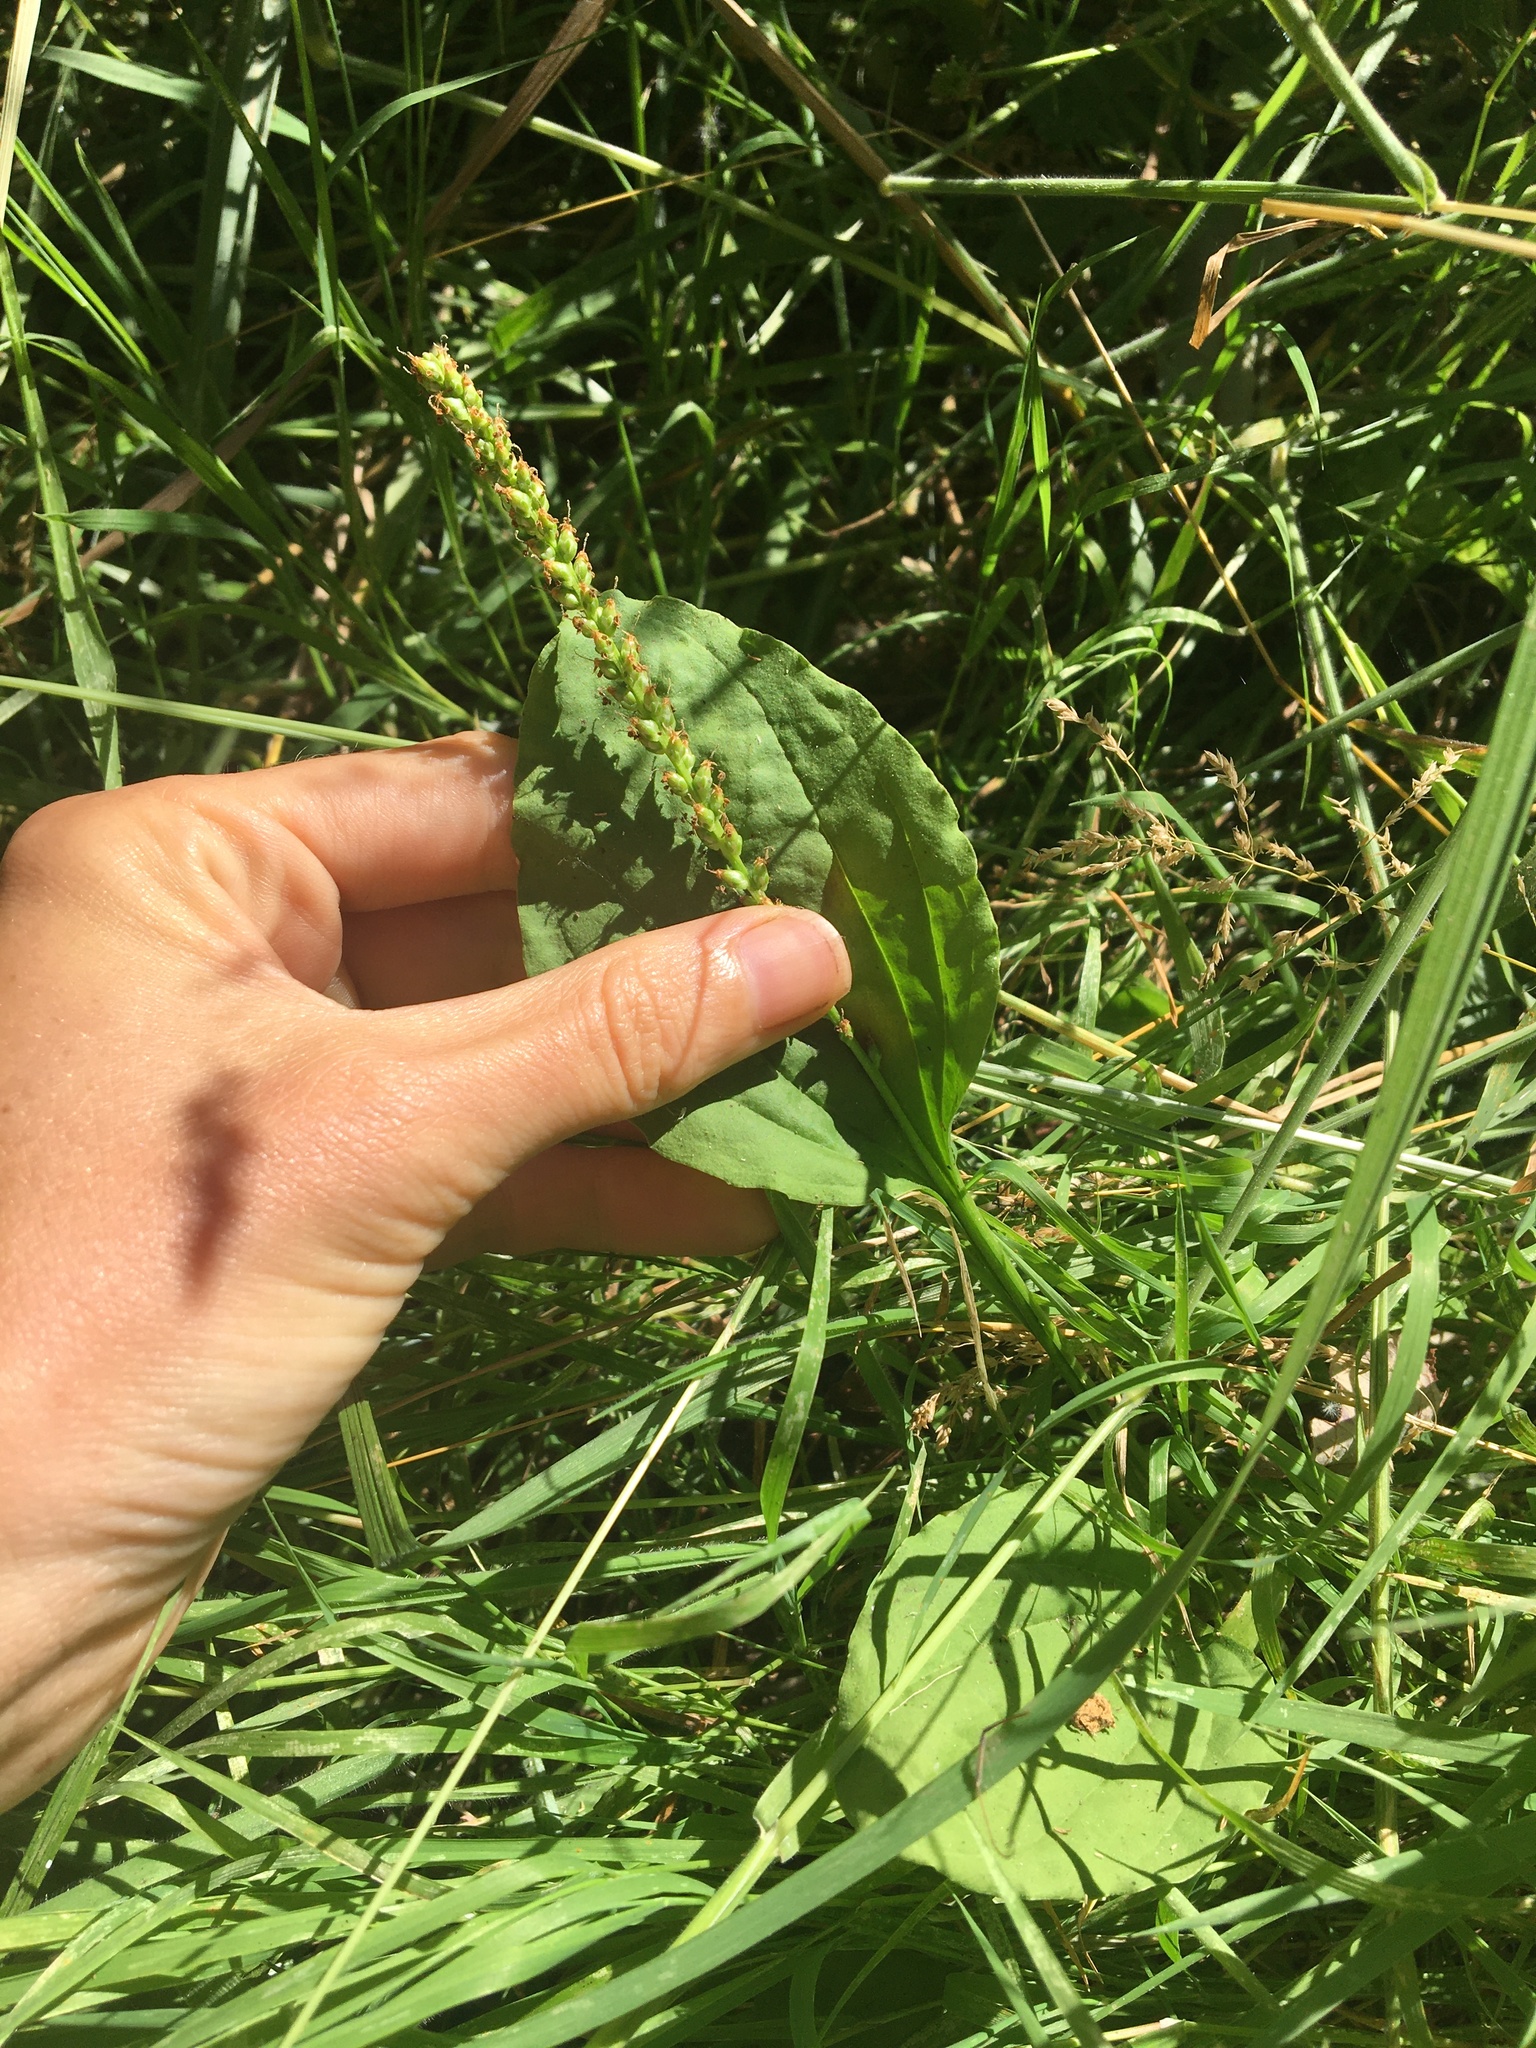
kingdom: Plantae
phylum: Tracheophyta
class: Magnoliopsida
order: Lamiales
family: Plantaginaceae
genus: Plantago
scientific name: Plantago major
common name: Common plantain
